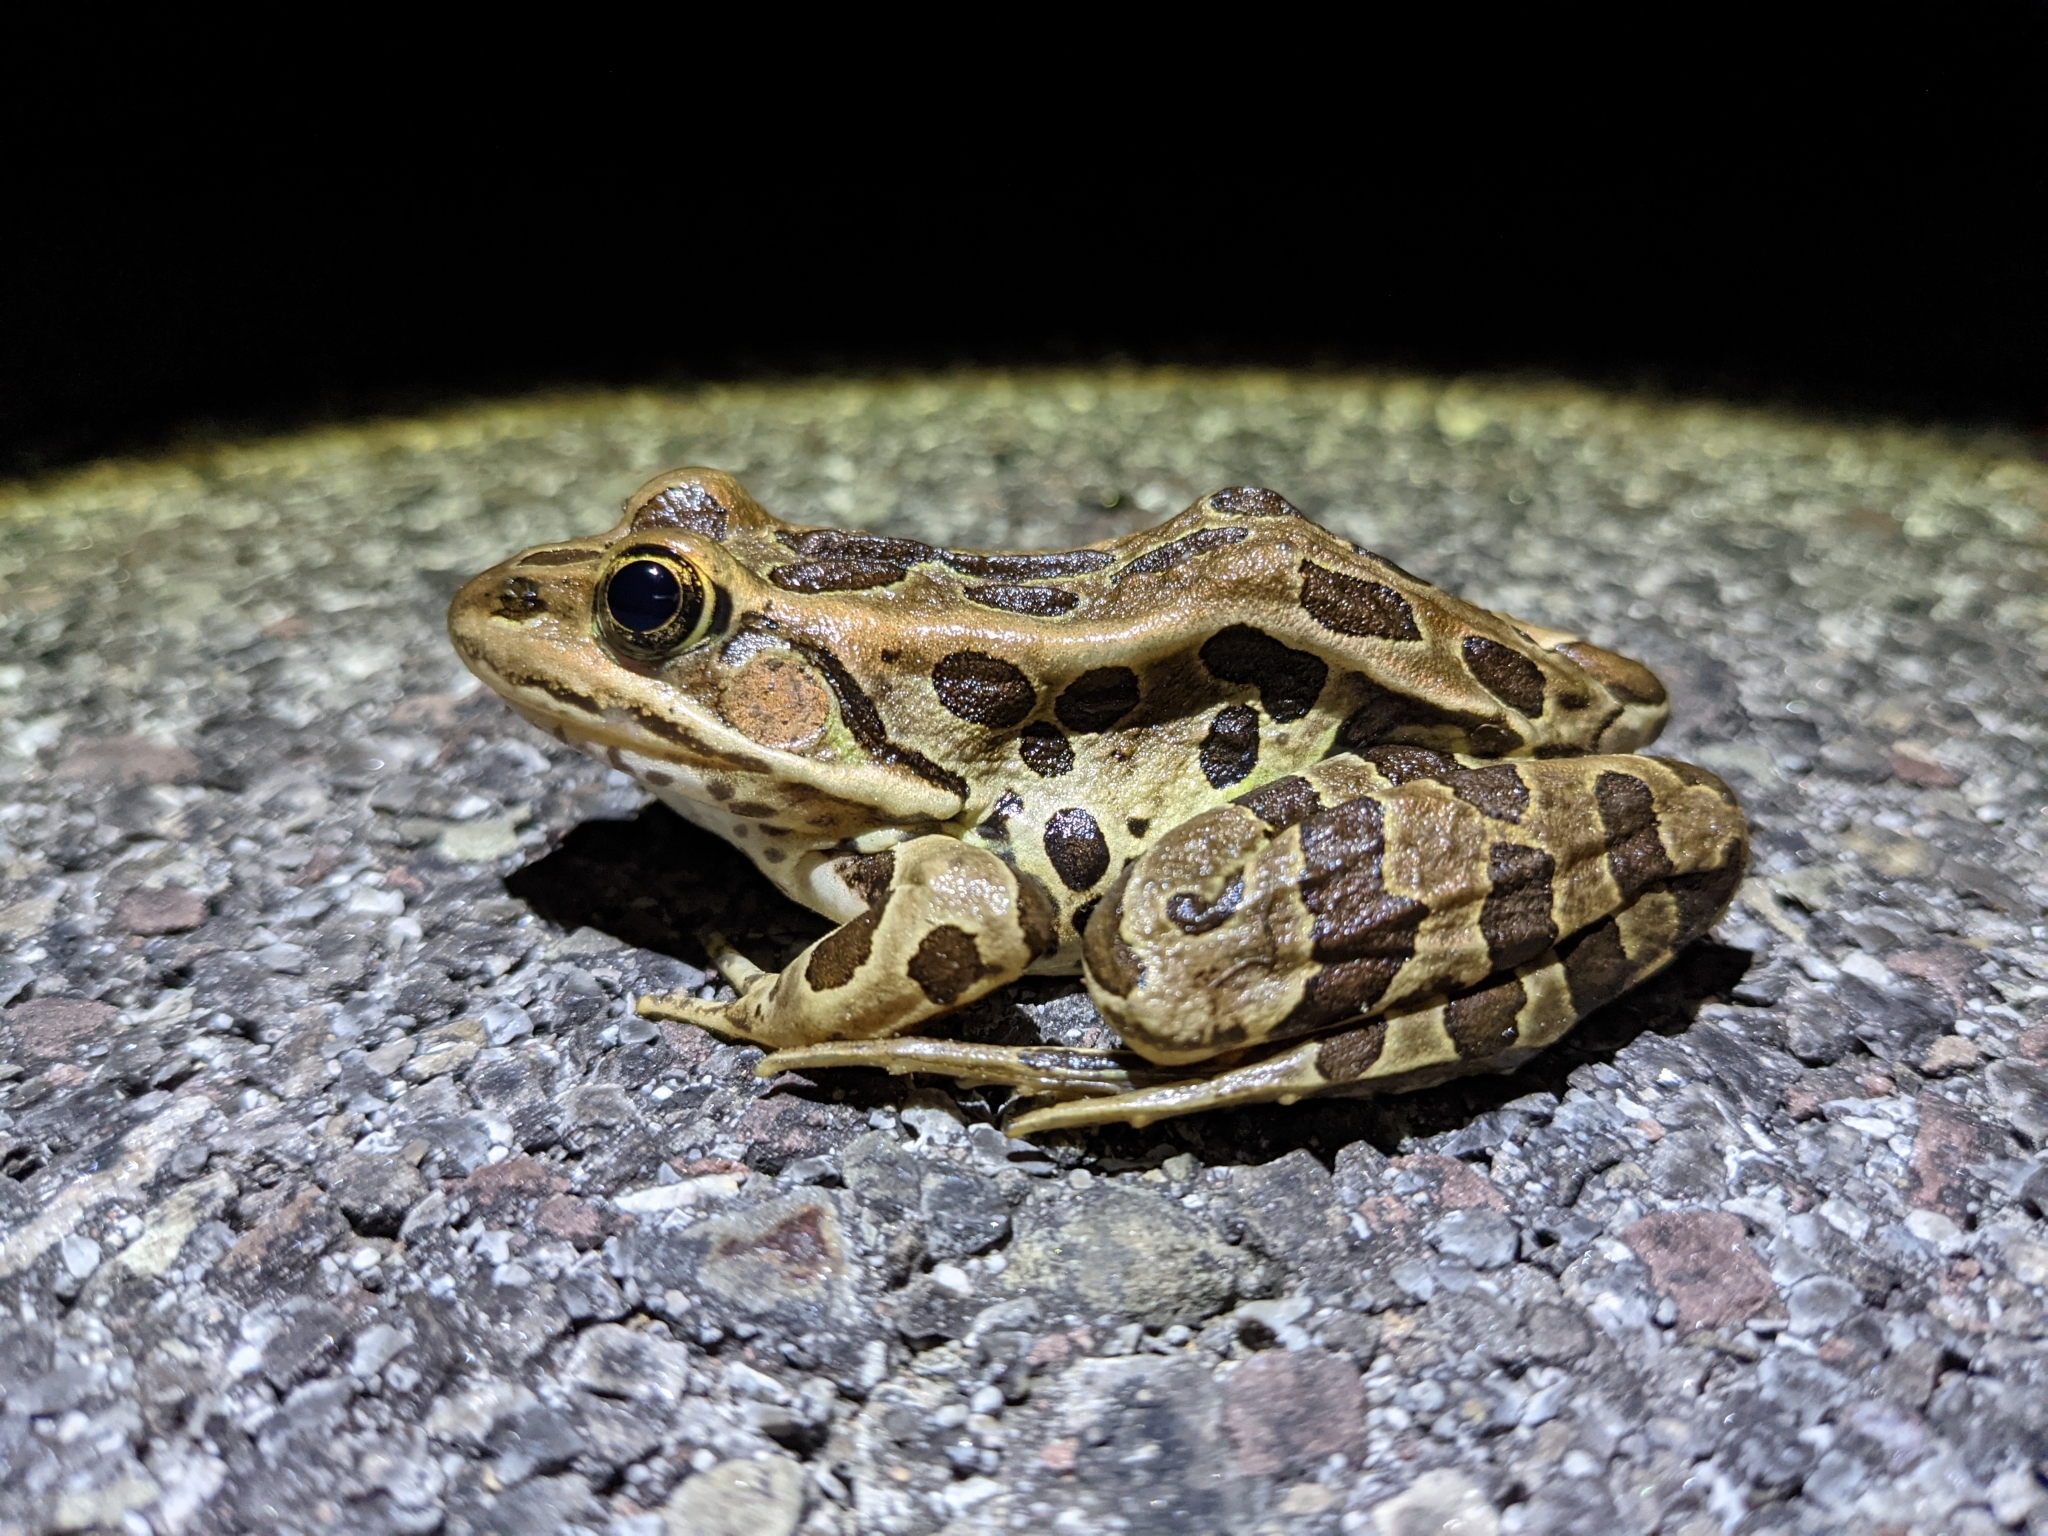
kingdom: Animalia
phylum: Chordata
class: Amphibia
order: Anura
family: Ranidae
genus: Lithobates
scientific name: Lithobates palustris
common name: Pickerel frog
